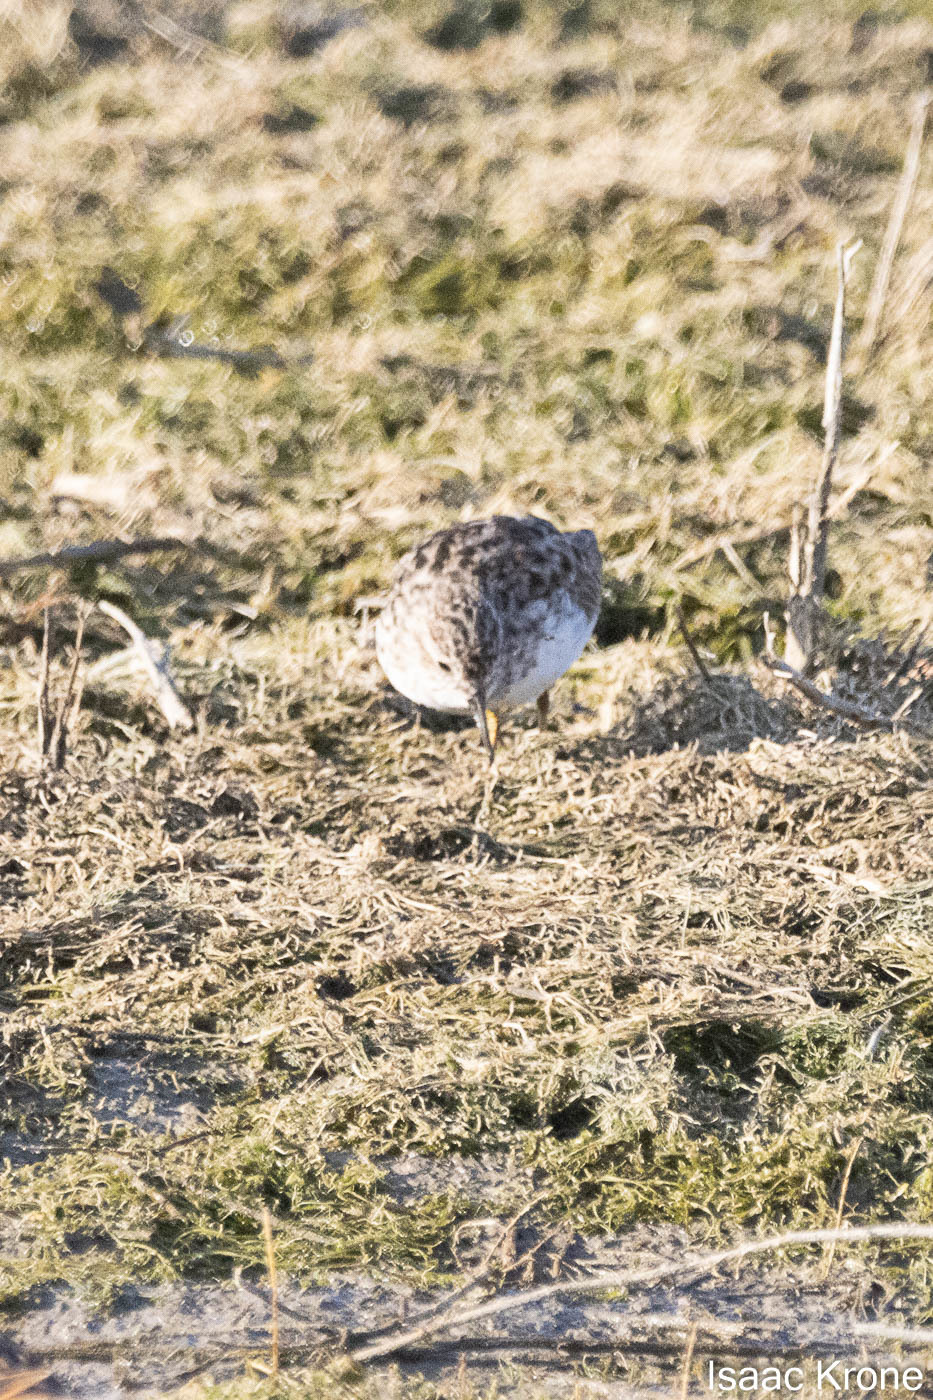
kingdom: Animalia
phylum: Chordata
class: Aves
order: Charadriiformes
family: Scolopacidae
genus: Calidris
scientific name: Calidris minutilla
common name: Least sandpiper
